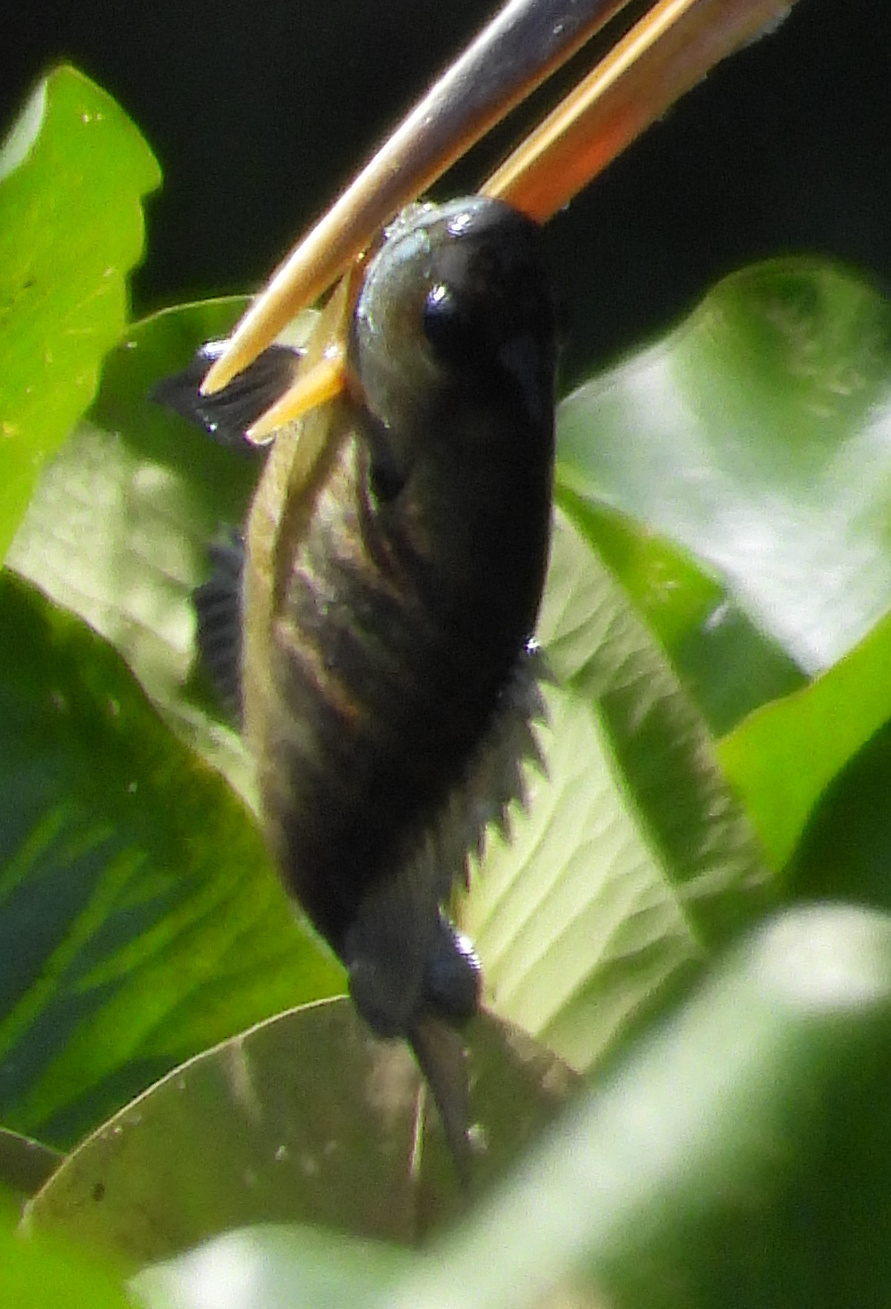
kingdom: Animalia
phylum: Chordata
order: Perciformes
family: Centrarchidae
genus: Lepomis
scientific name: Lepomis macrochirus
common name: Bluegill
